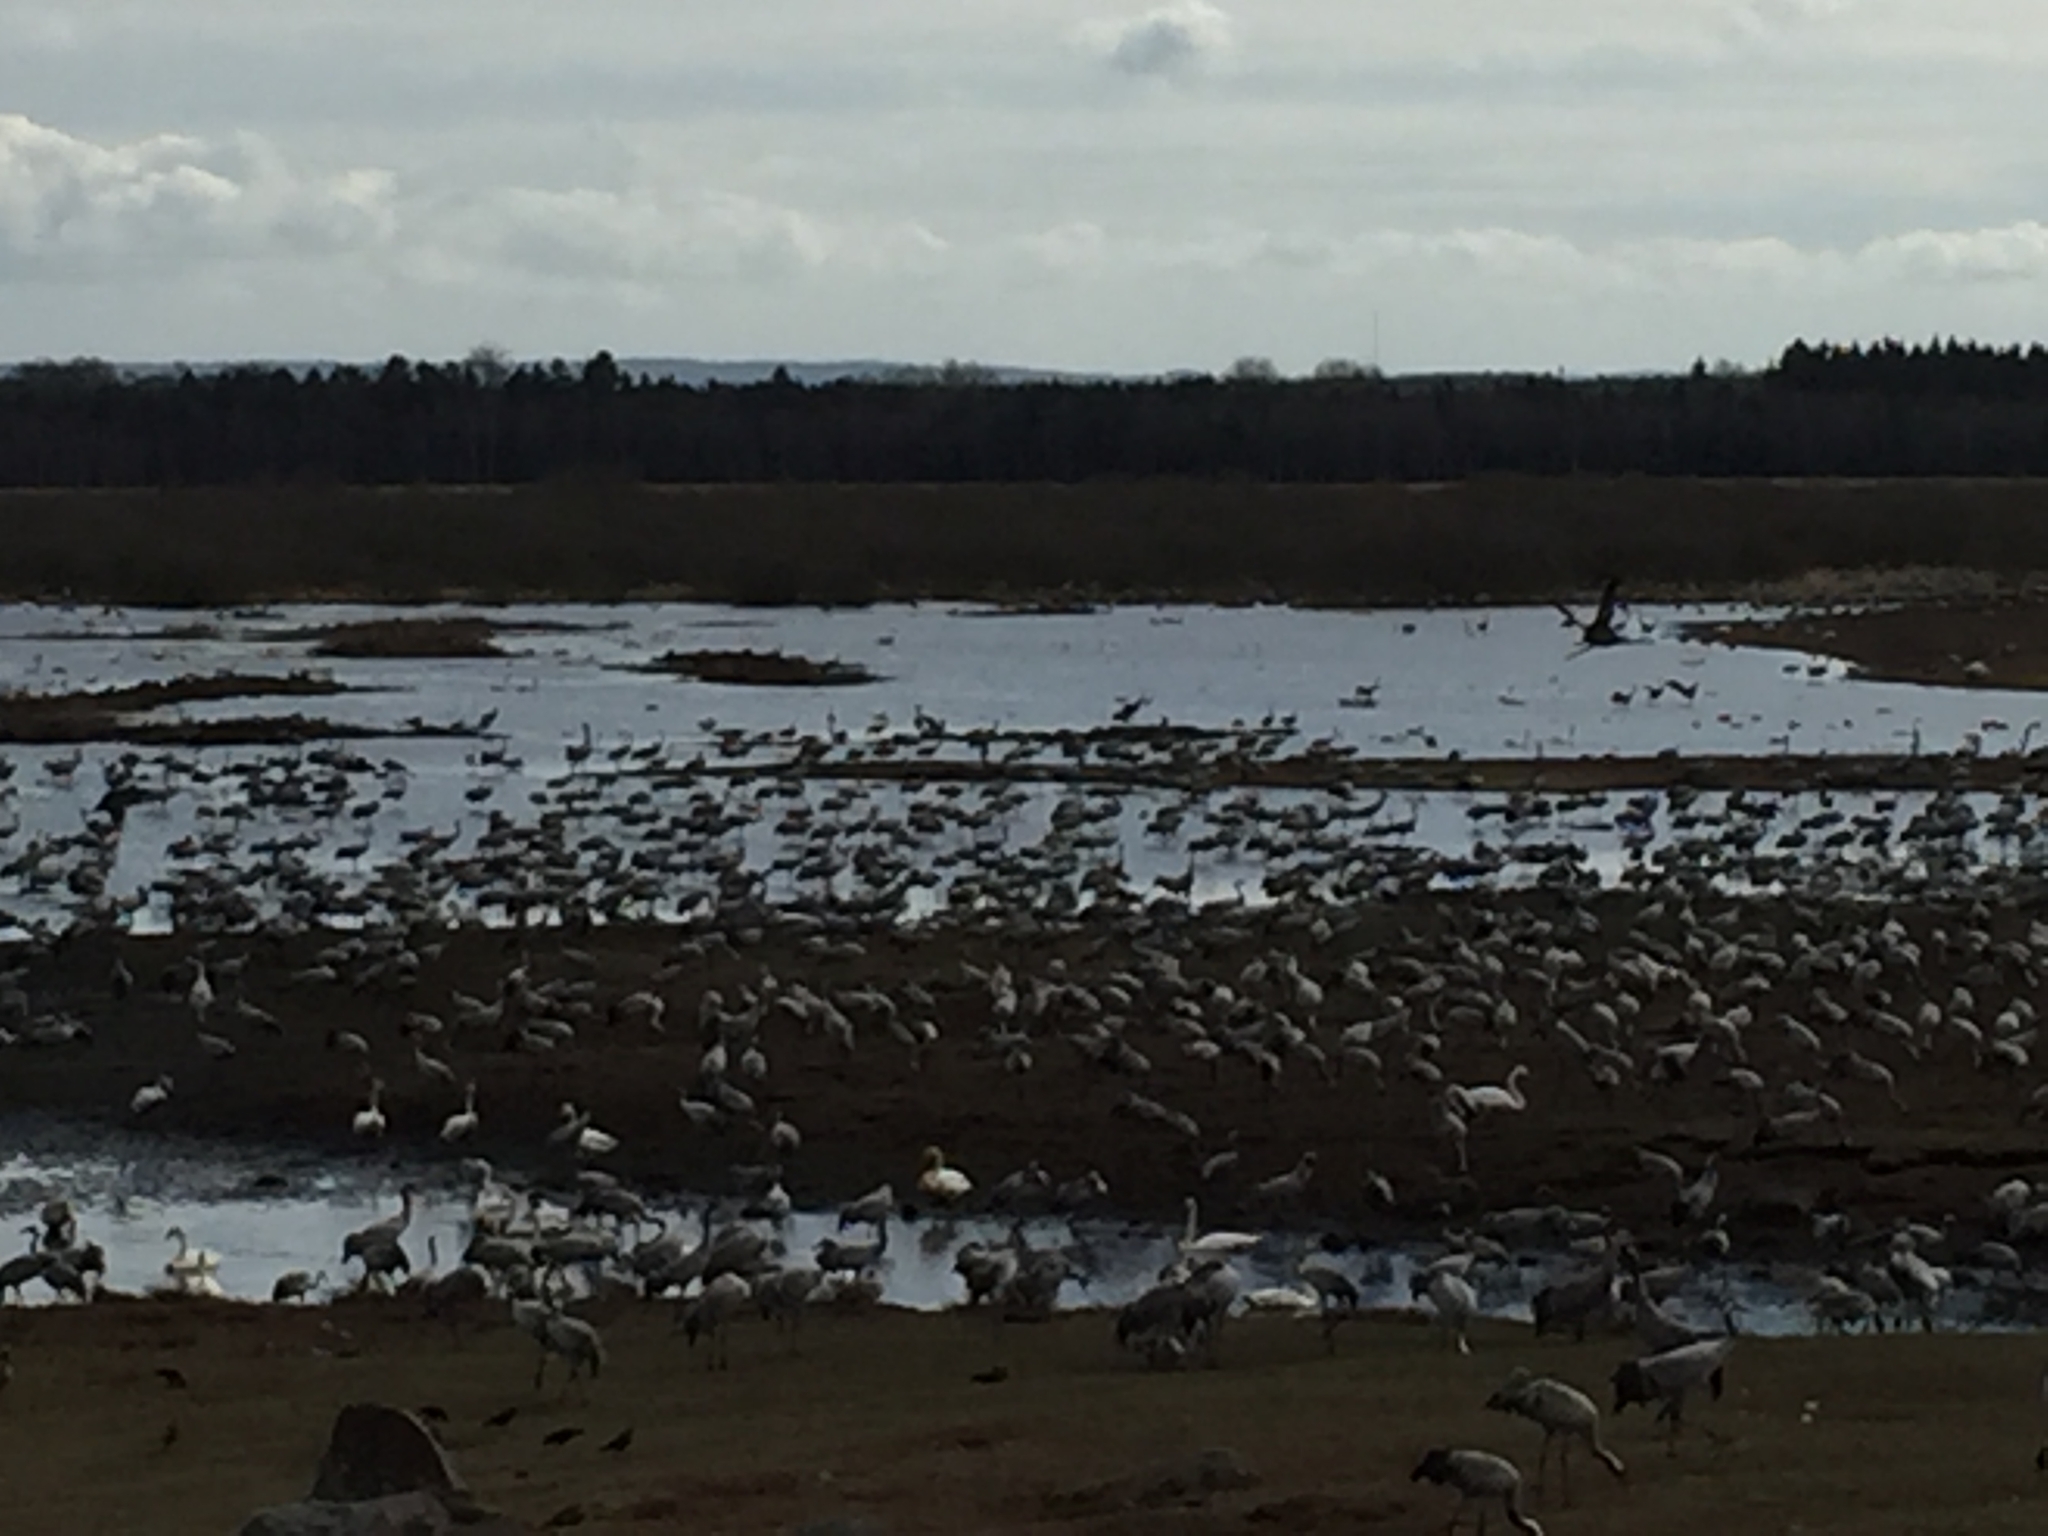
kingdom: Animalia
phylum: Chordata
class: Aves
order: Gruiformes
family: Gruidae
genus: Grus
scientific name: Grus grus
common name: Common crane
